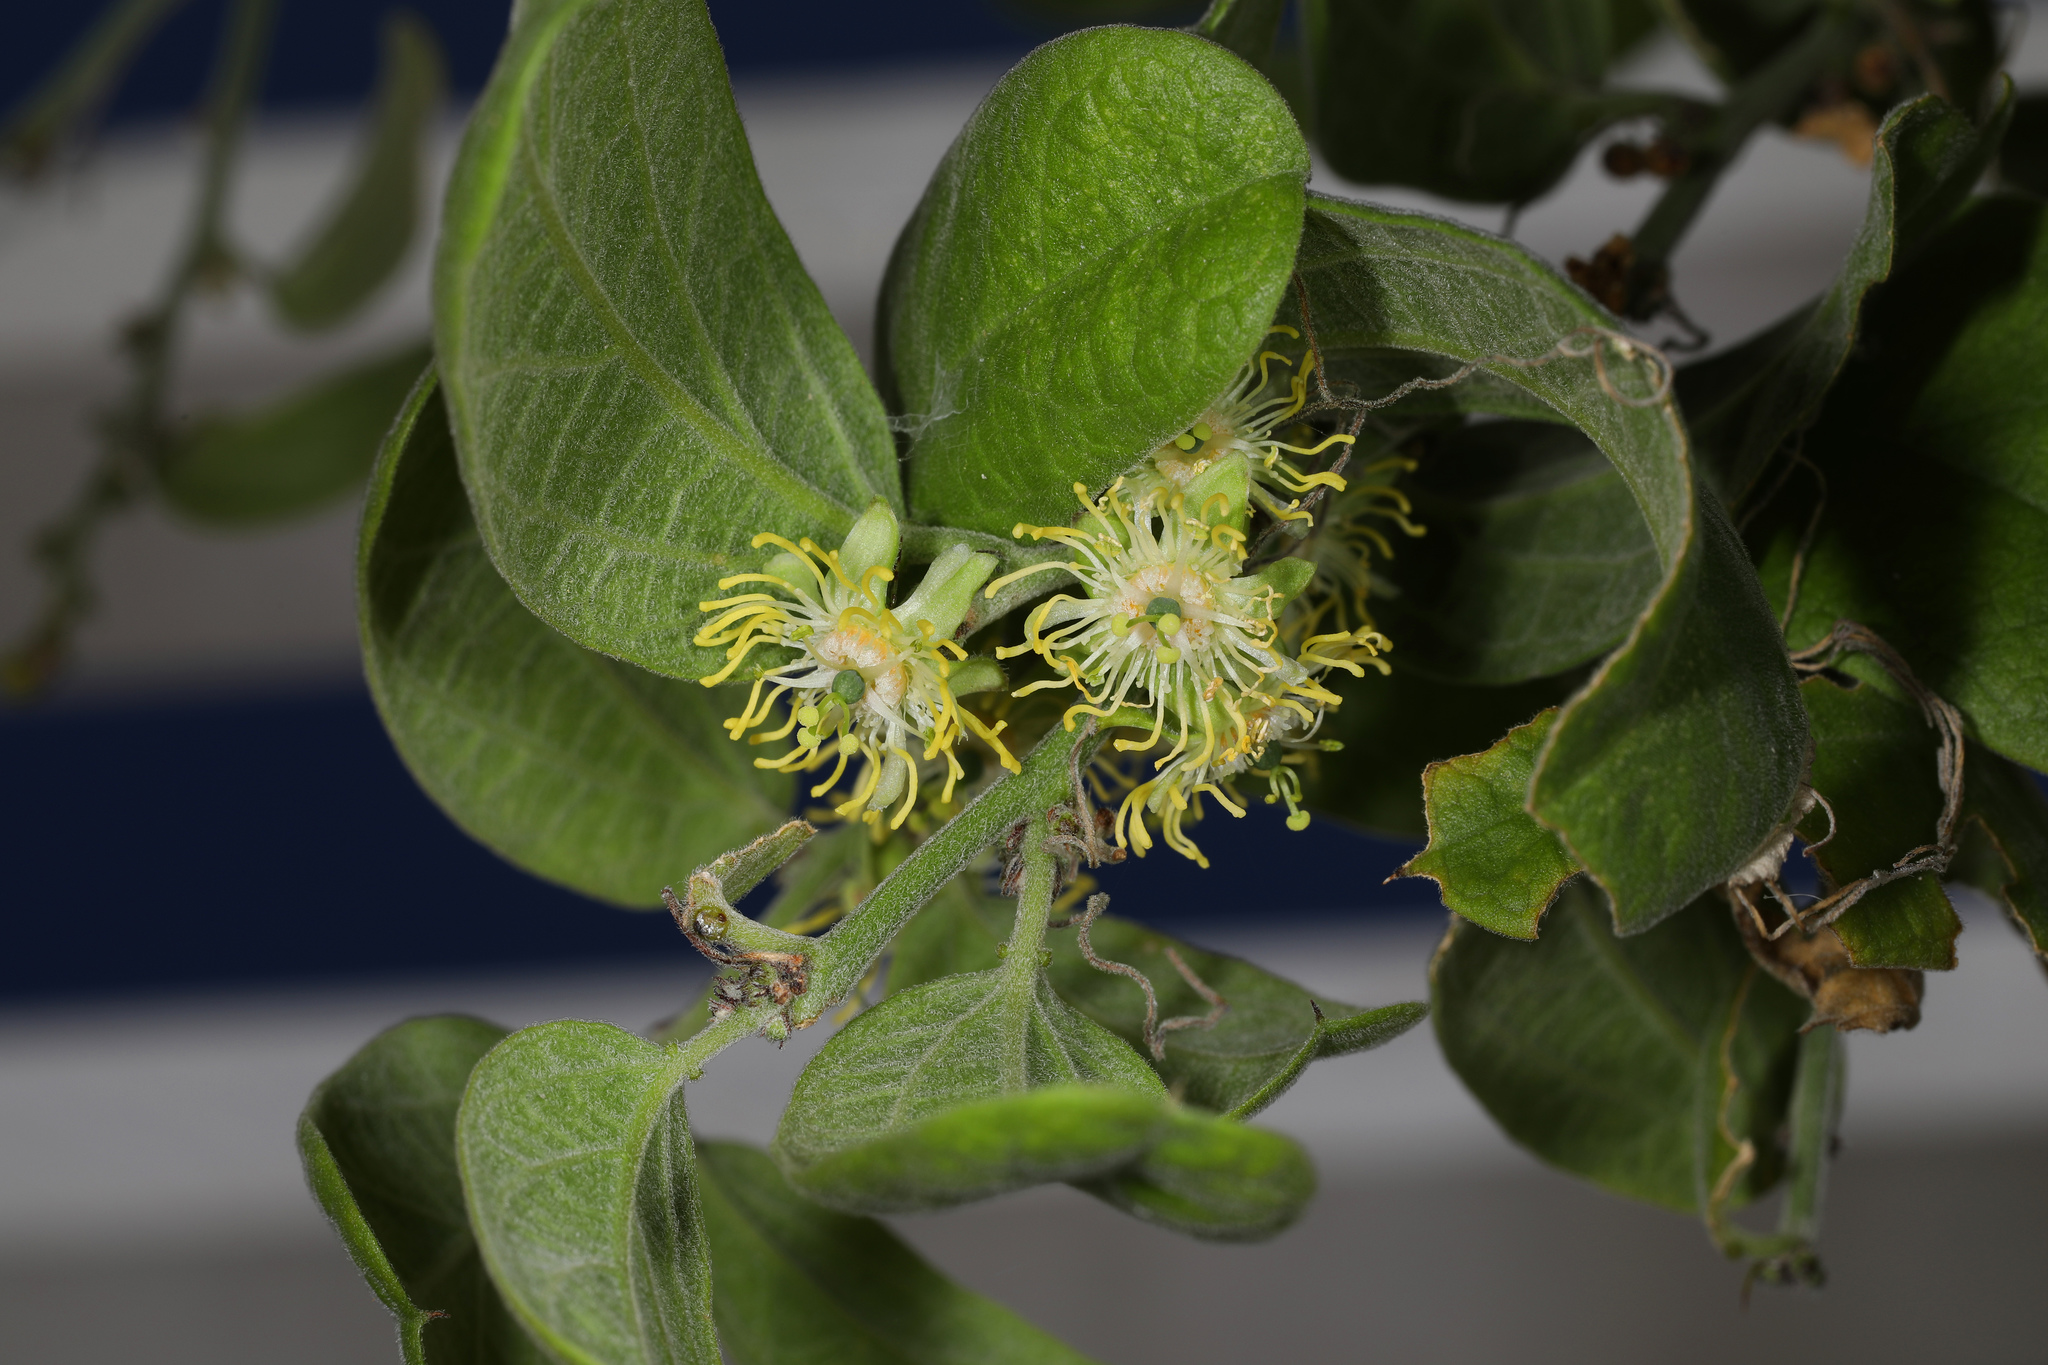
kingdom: Plantae
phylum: Tracheophyta
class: Magnoliopsida
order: Malpighiales
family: Passifloraceae
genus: Passiflora
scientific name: Passiflora multiflora
